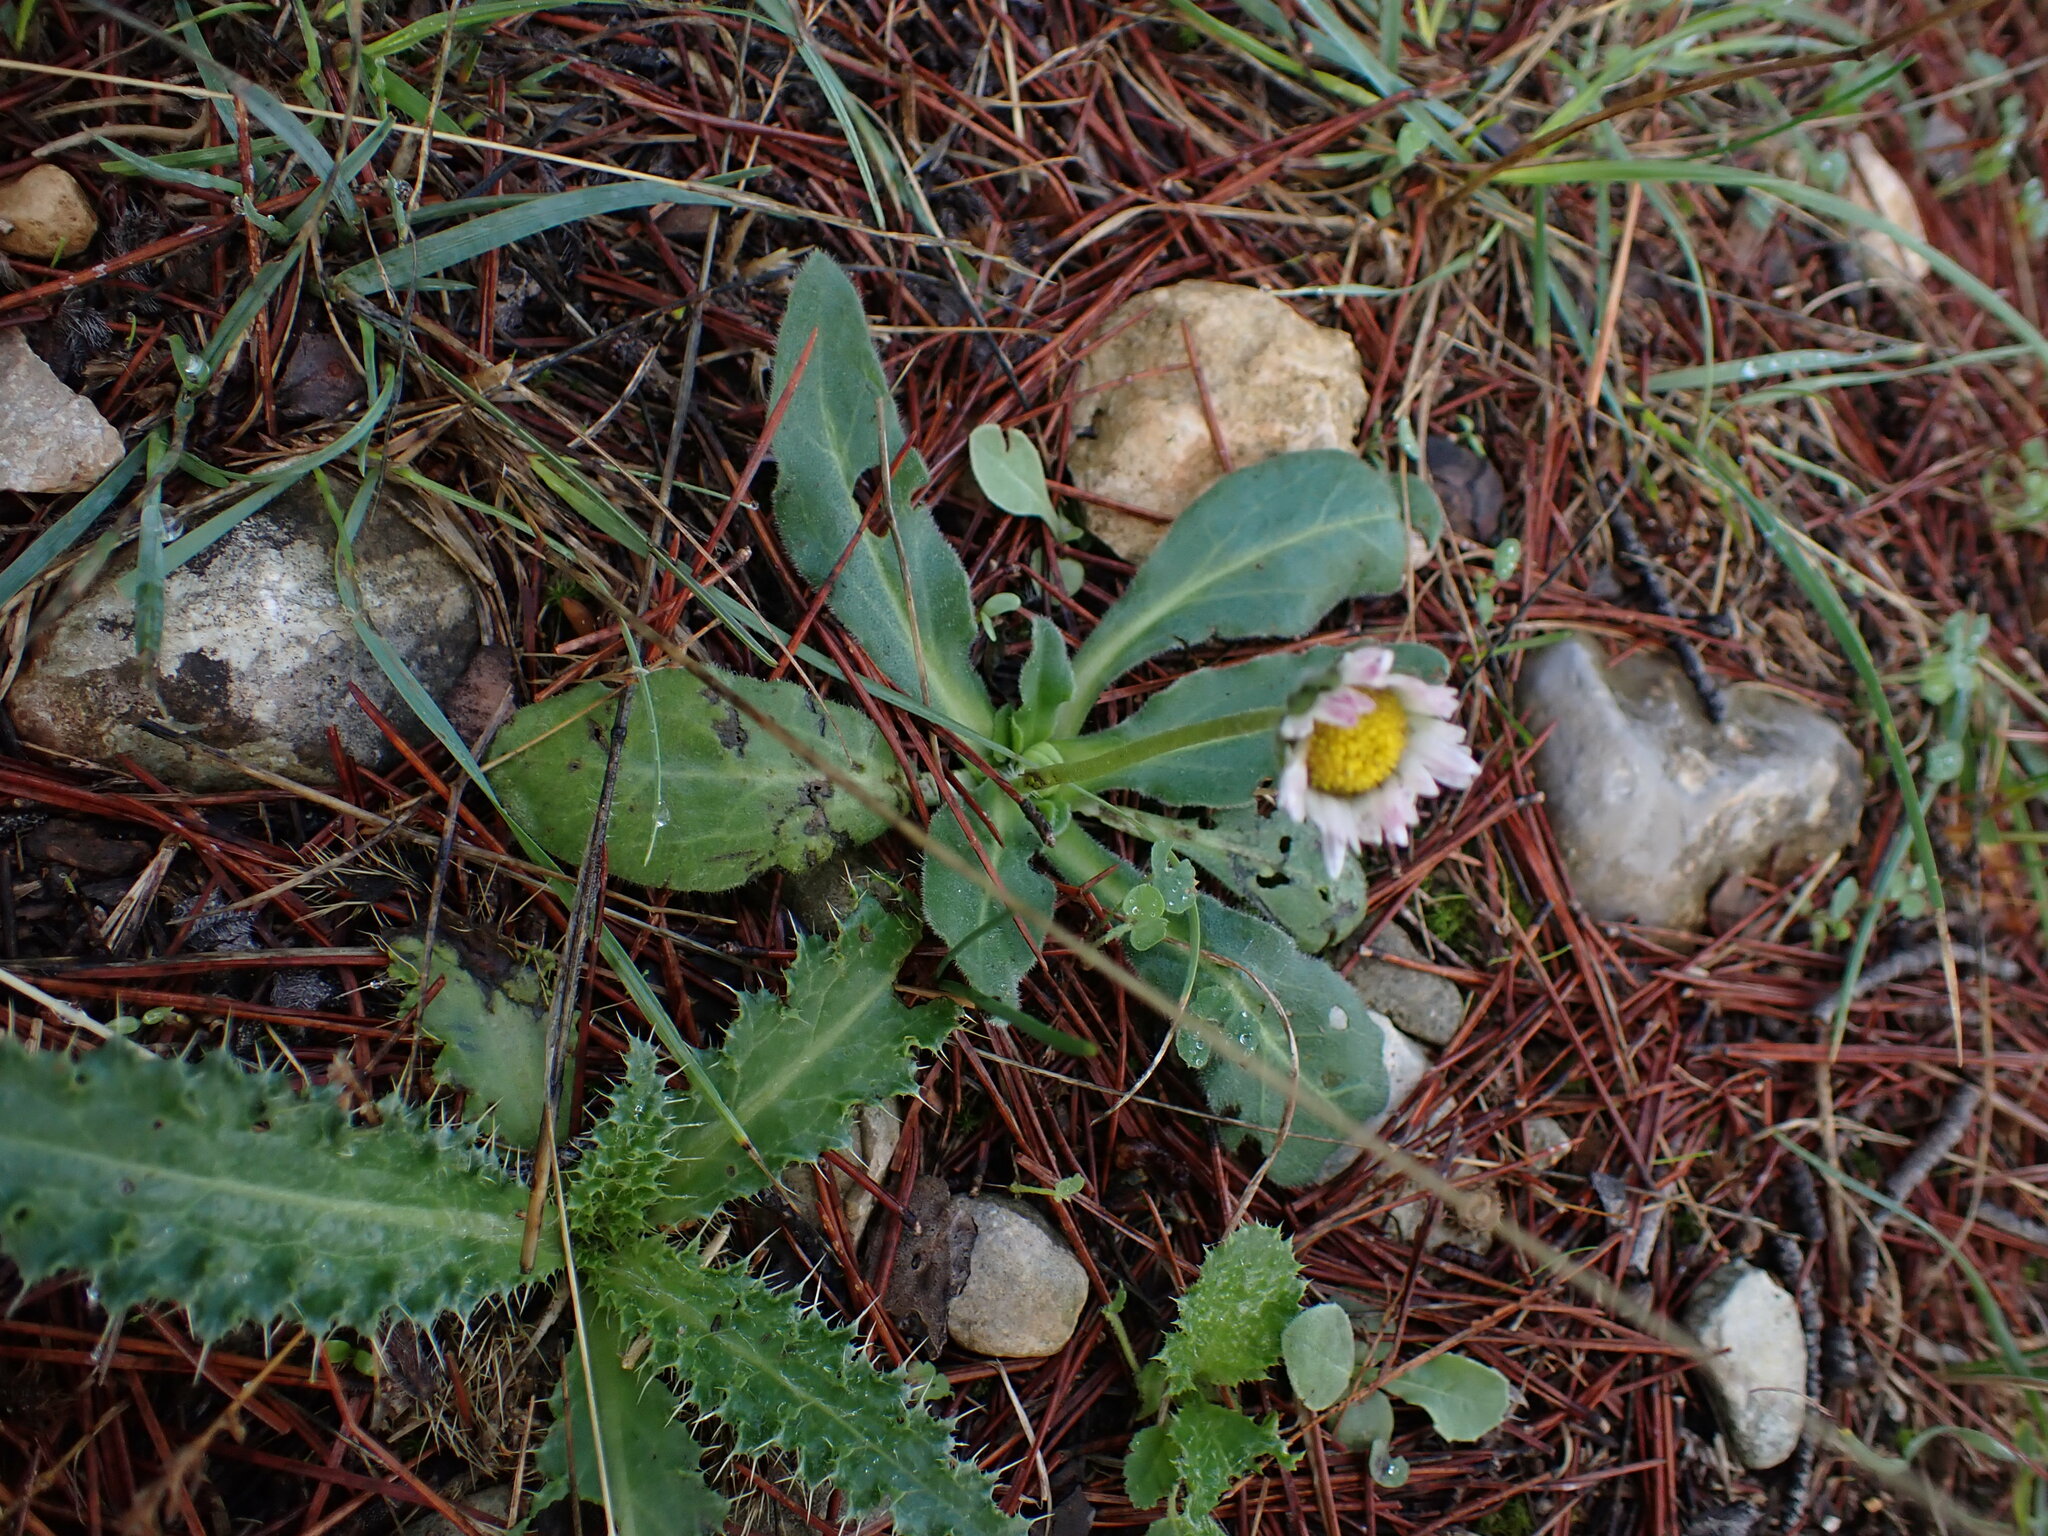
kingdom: Plantae
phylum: Tracheophyta
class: Magnoliopsida
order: Asterales
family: Asteraceae
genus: Bellis
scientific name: Bellis sylvestris
